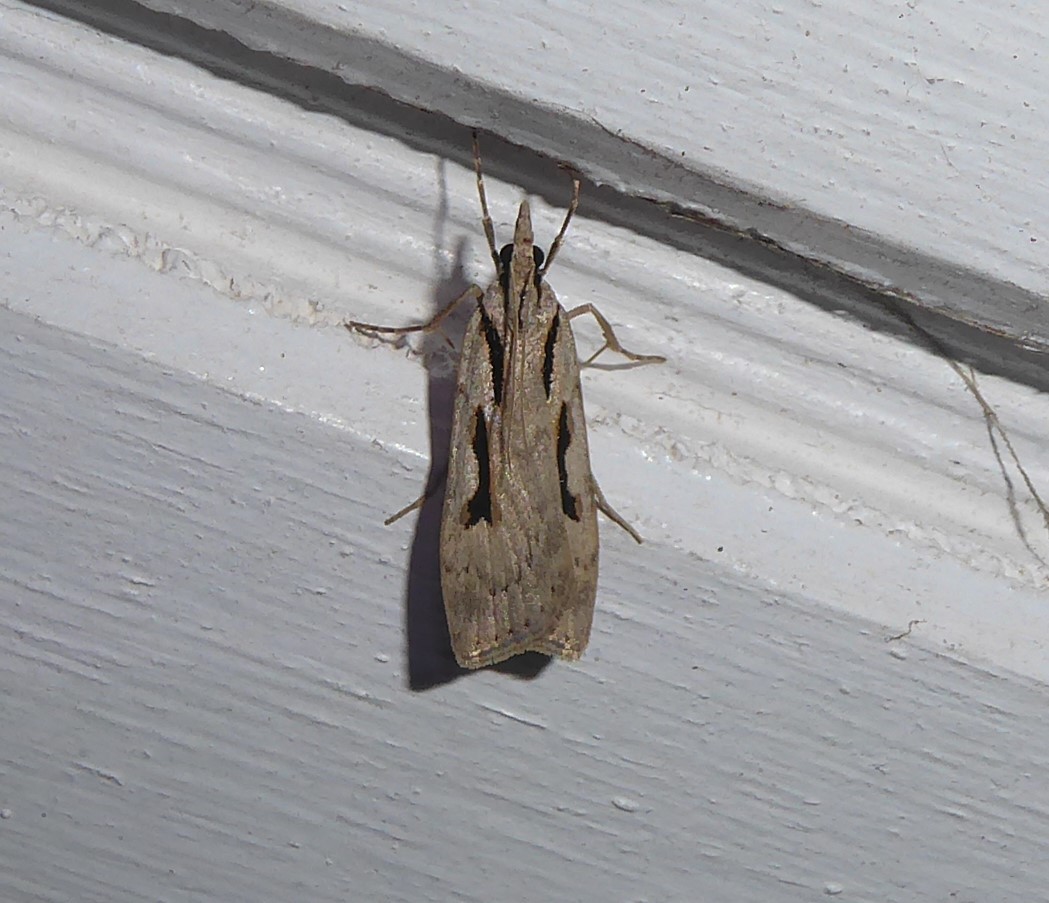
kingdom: Animalia
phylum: Arthropoda
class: Insecta
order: Lepidoptera
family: Crambidae
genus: Scoparia
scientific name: Scoparia rotuellus
